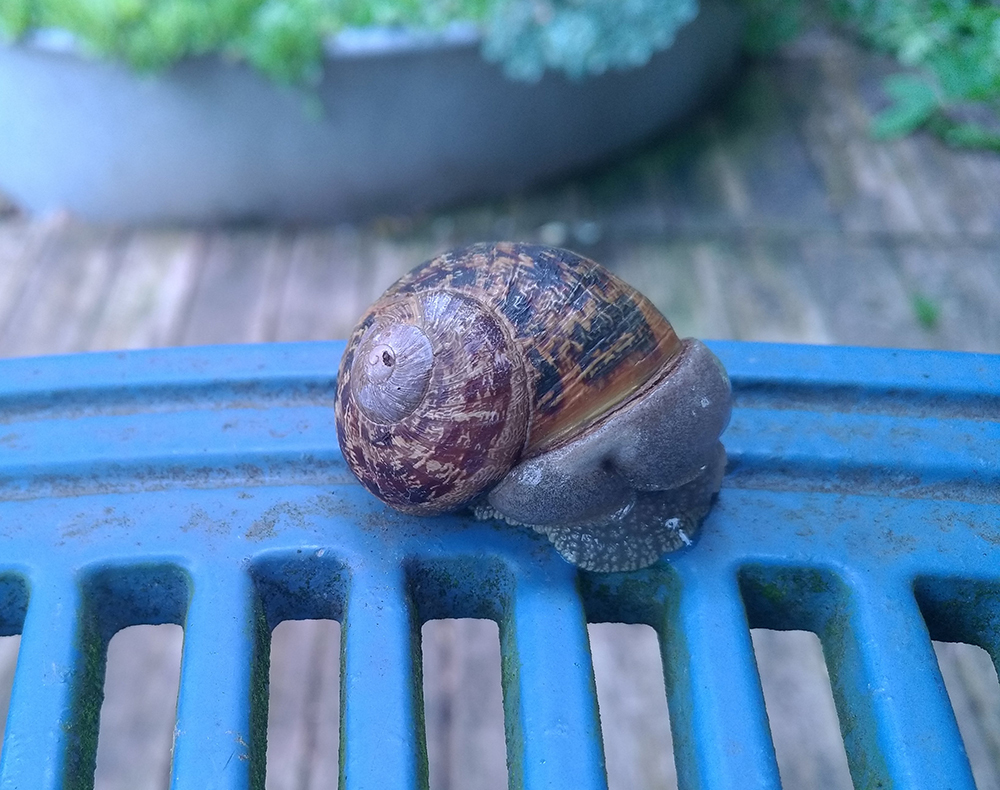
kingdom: Animalia
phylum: Mollusca
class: Gastropoda
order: Stylommatophora
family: Helicidae
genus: Cornu
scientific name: Cornu aspersum
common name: Brown garden snail
